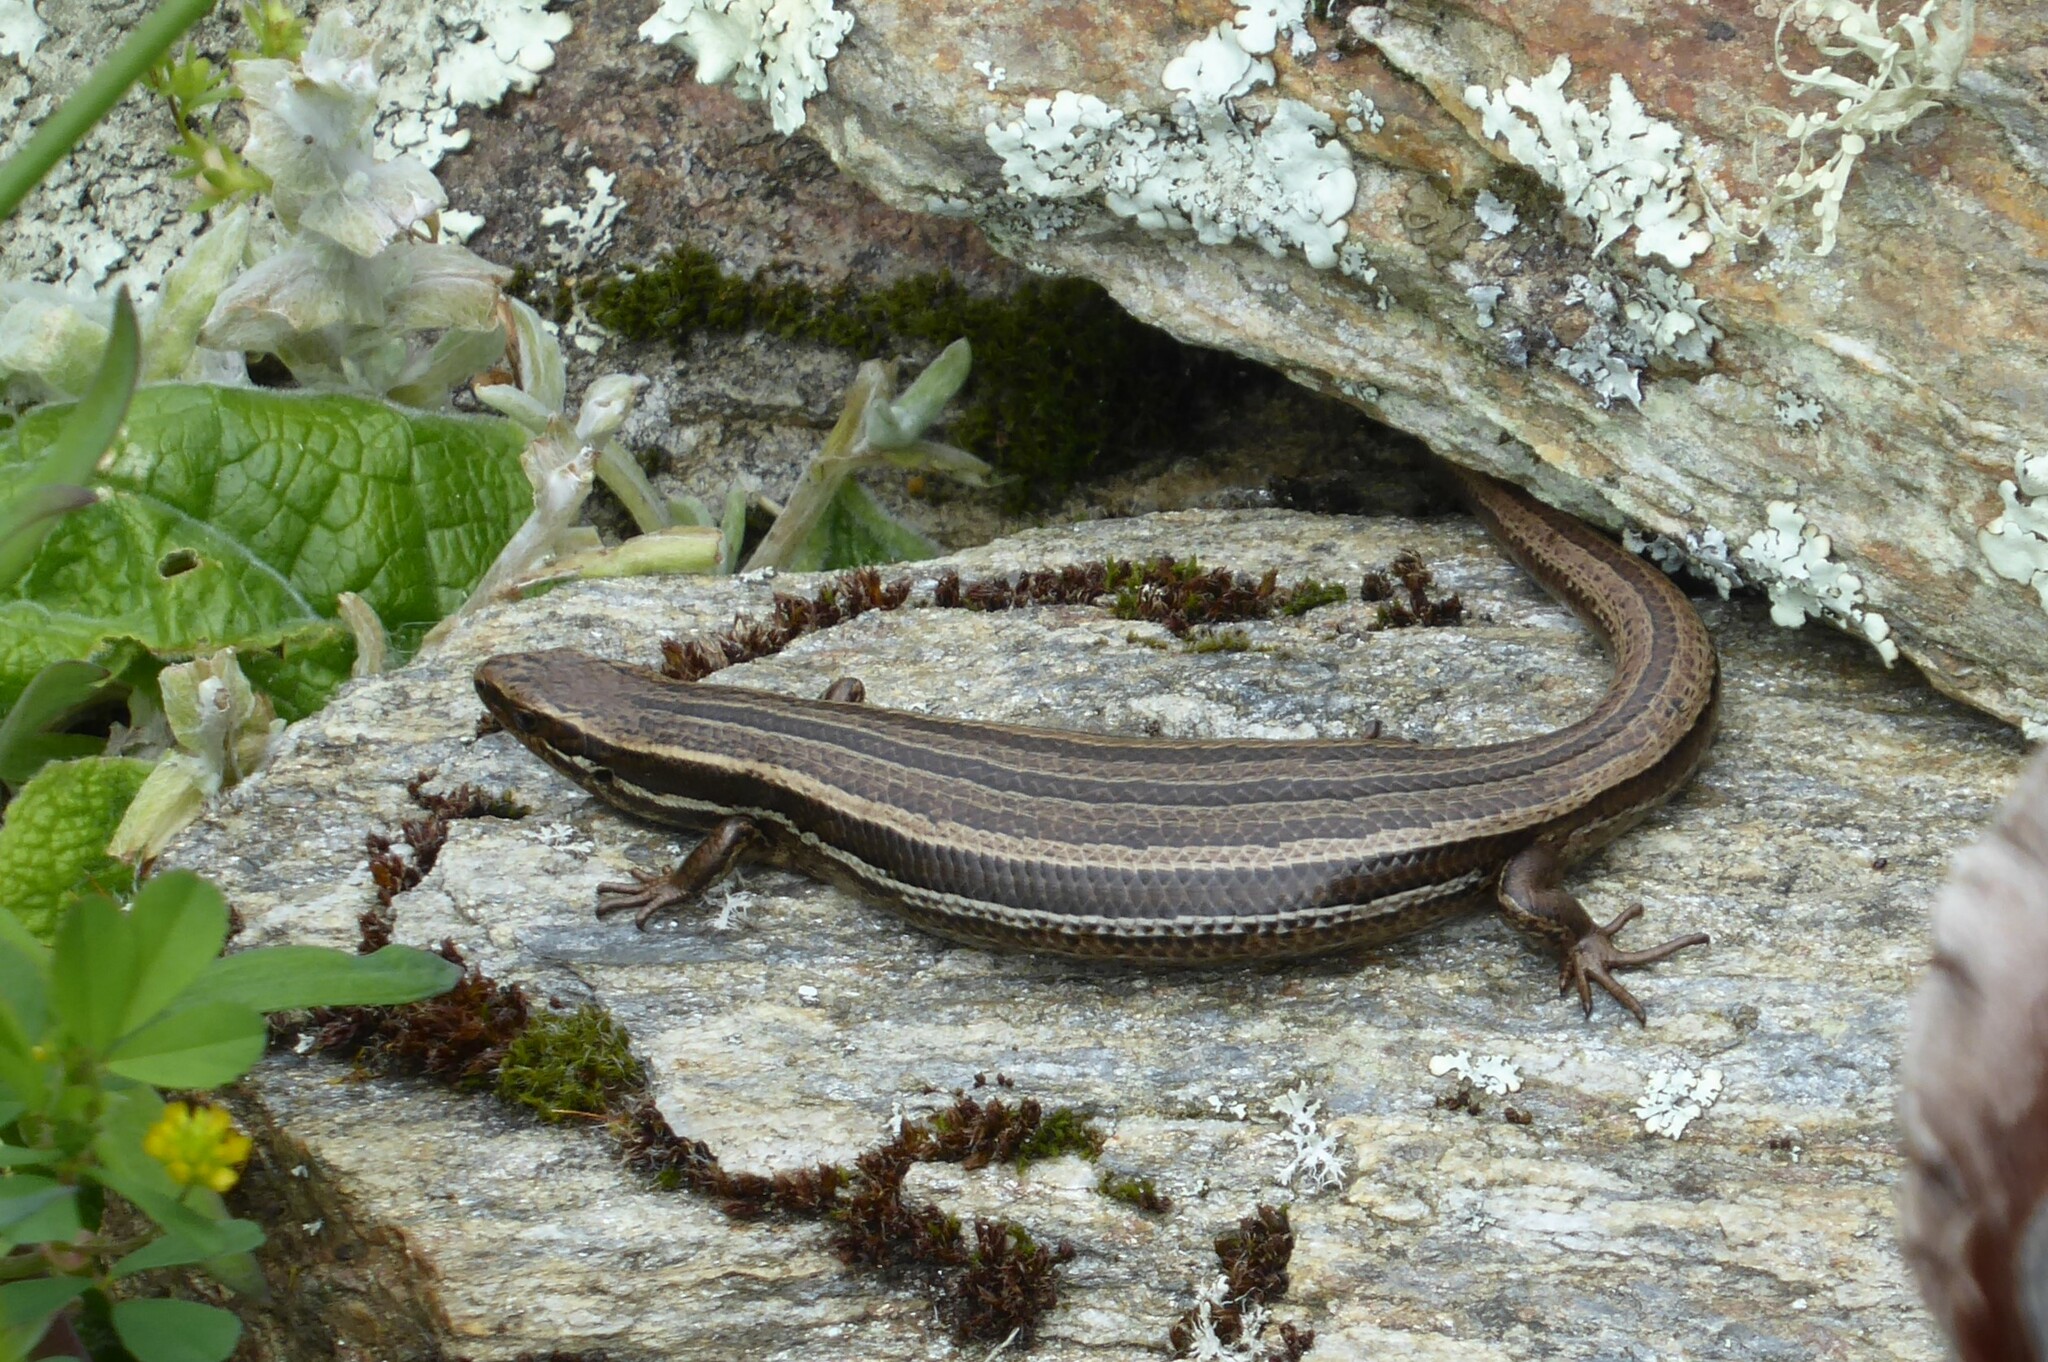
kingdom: Animalia
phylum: Chordata
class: Squamata
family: Scincidae
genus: Oligosoma
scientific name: Oligosoma polychroma
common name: Common new zealand skink
